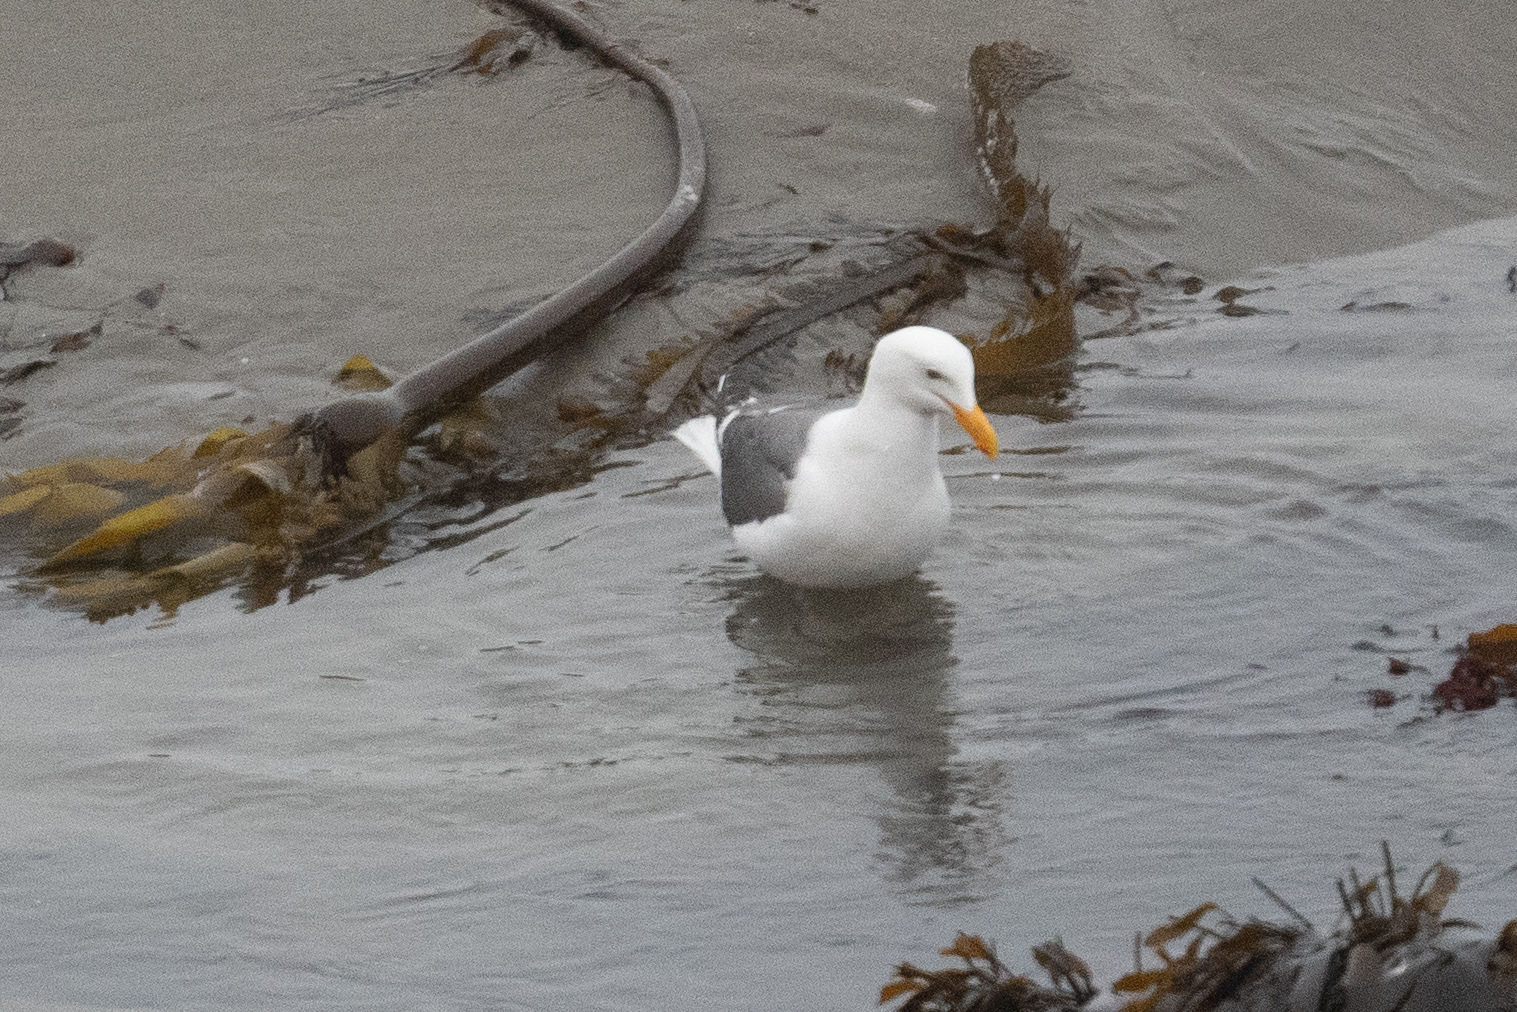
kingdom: Animalia
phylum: Chordata
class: Aves
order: Charadriiformes
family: Laridae
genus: Larus
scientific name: Larus occidentalis
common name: Western gull
